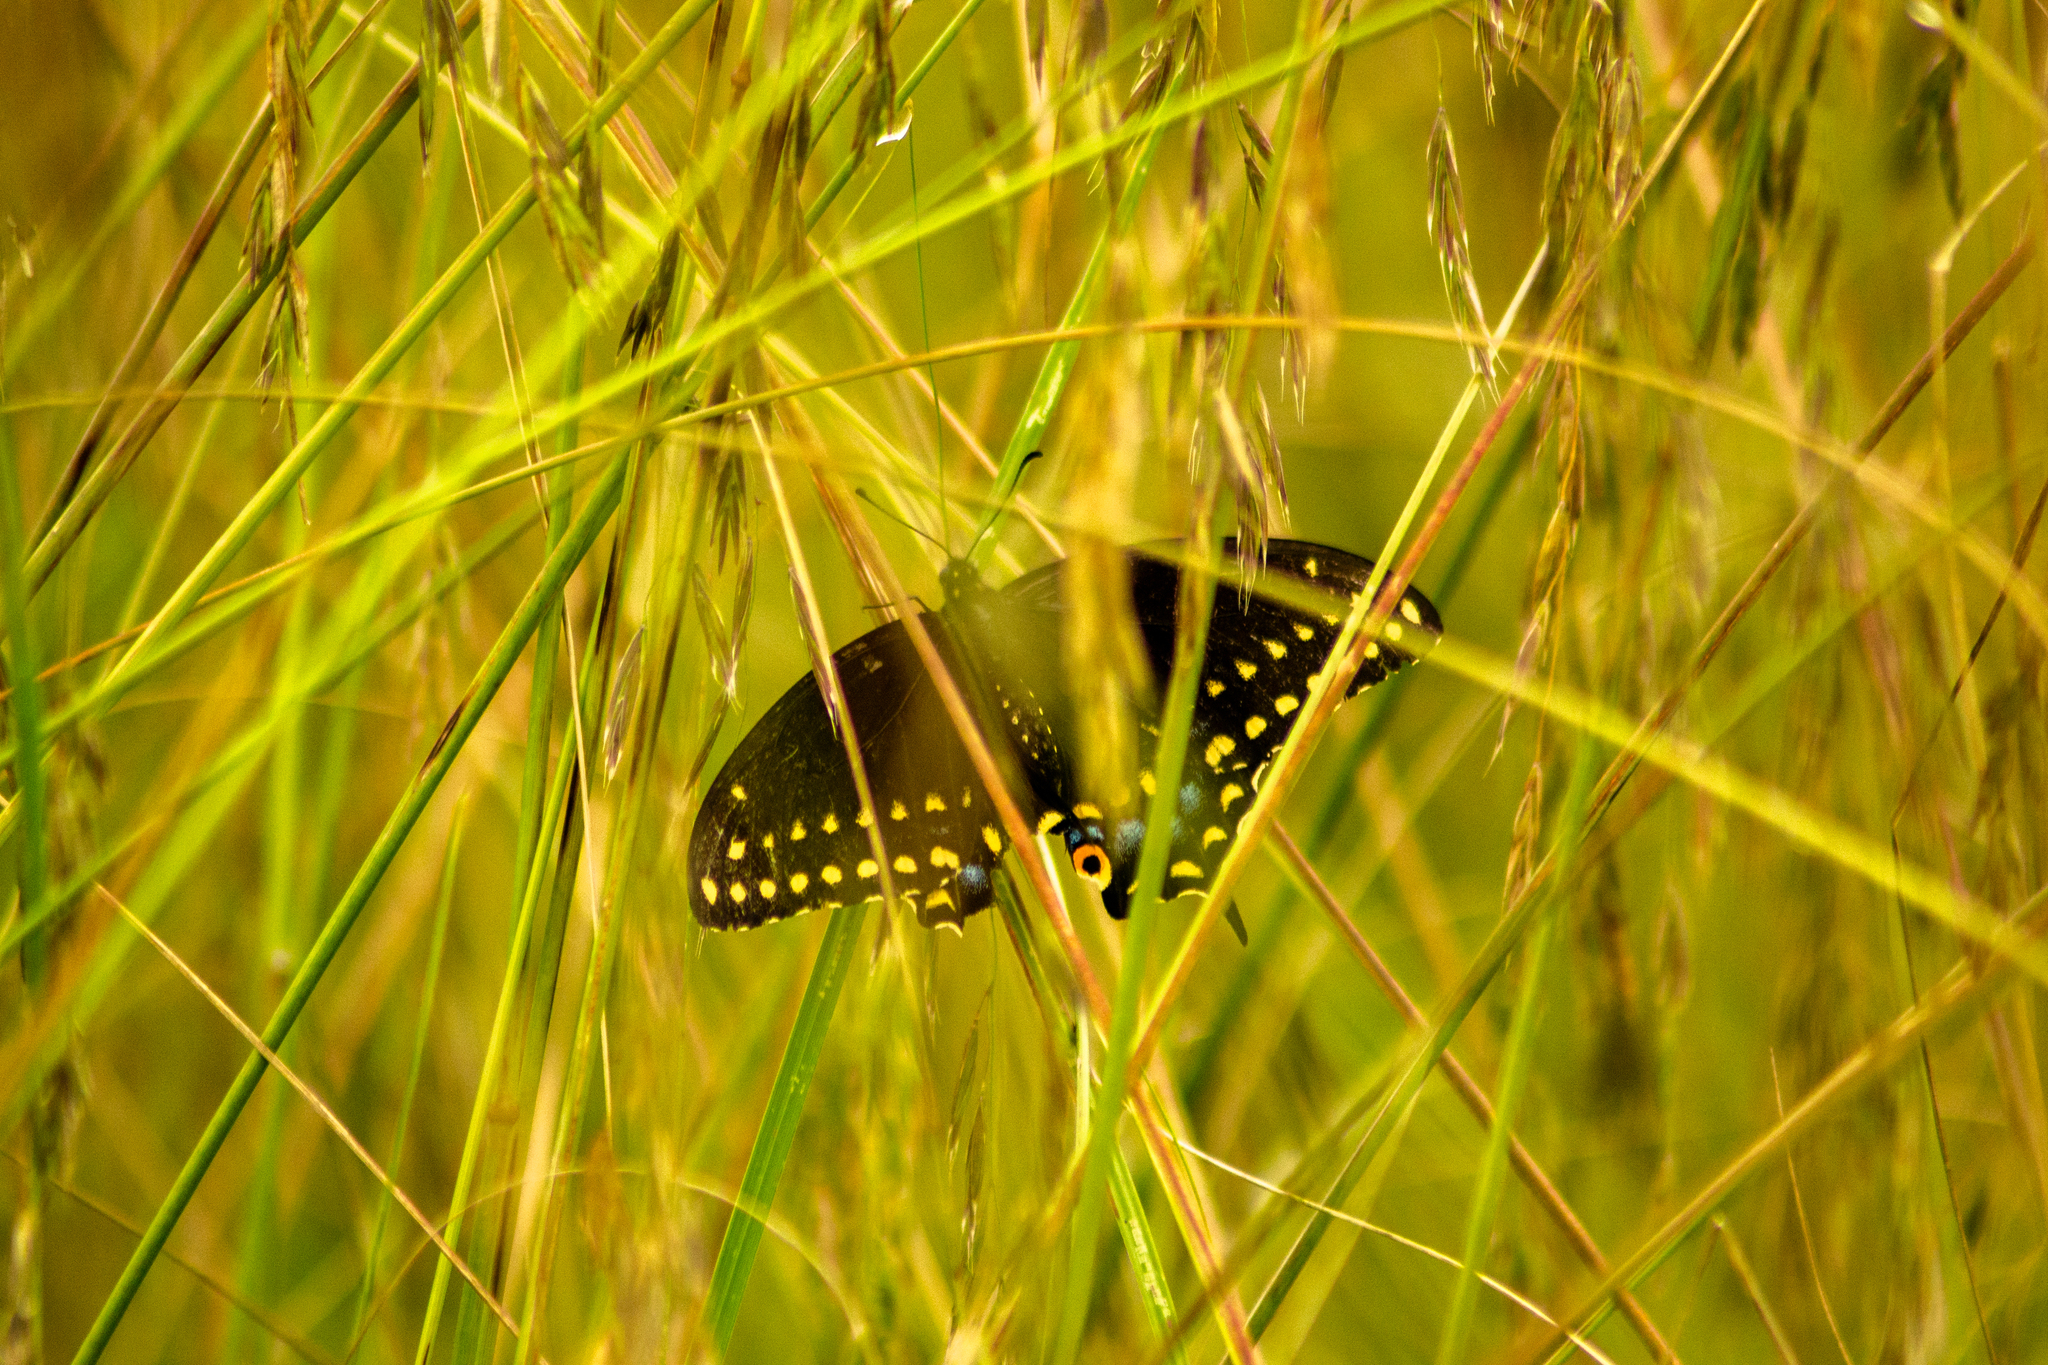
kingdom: Animalia
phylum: Arthropoda
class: Insecta
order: Lepidoptera
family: Papilionidae
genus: Papilio
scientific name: Papilio polyxenes
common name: Black swallowtail
